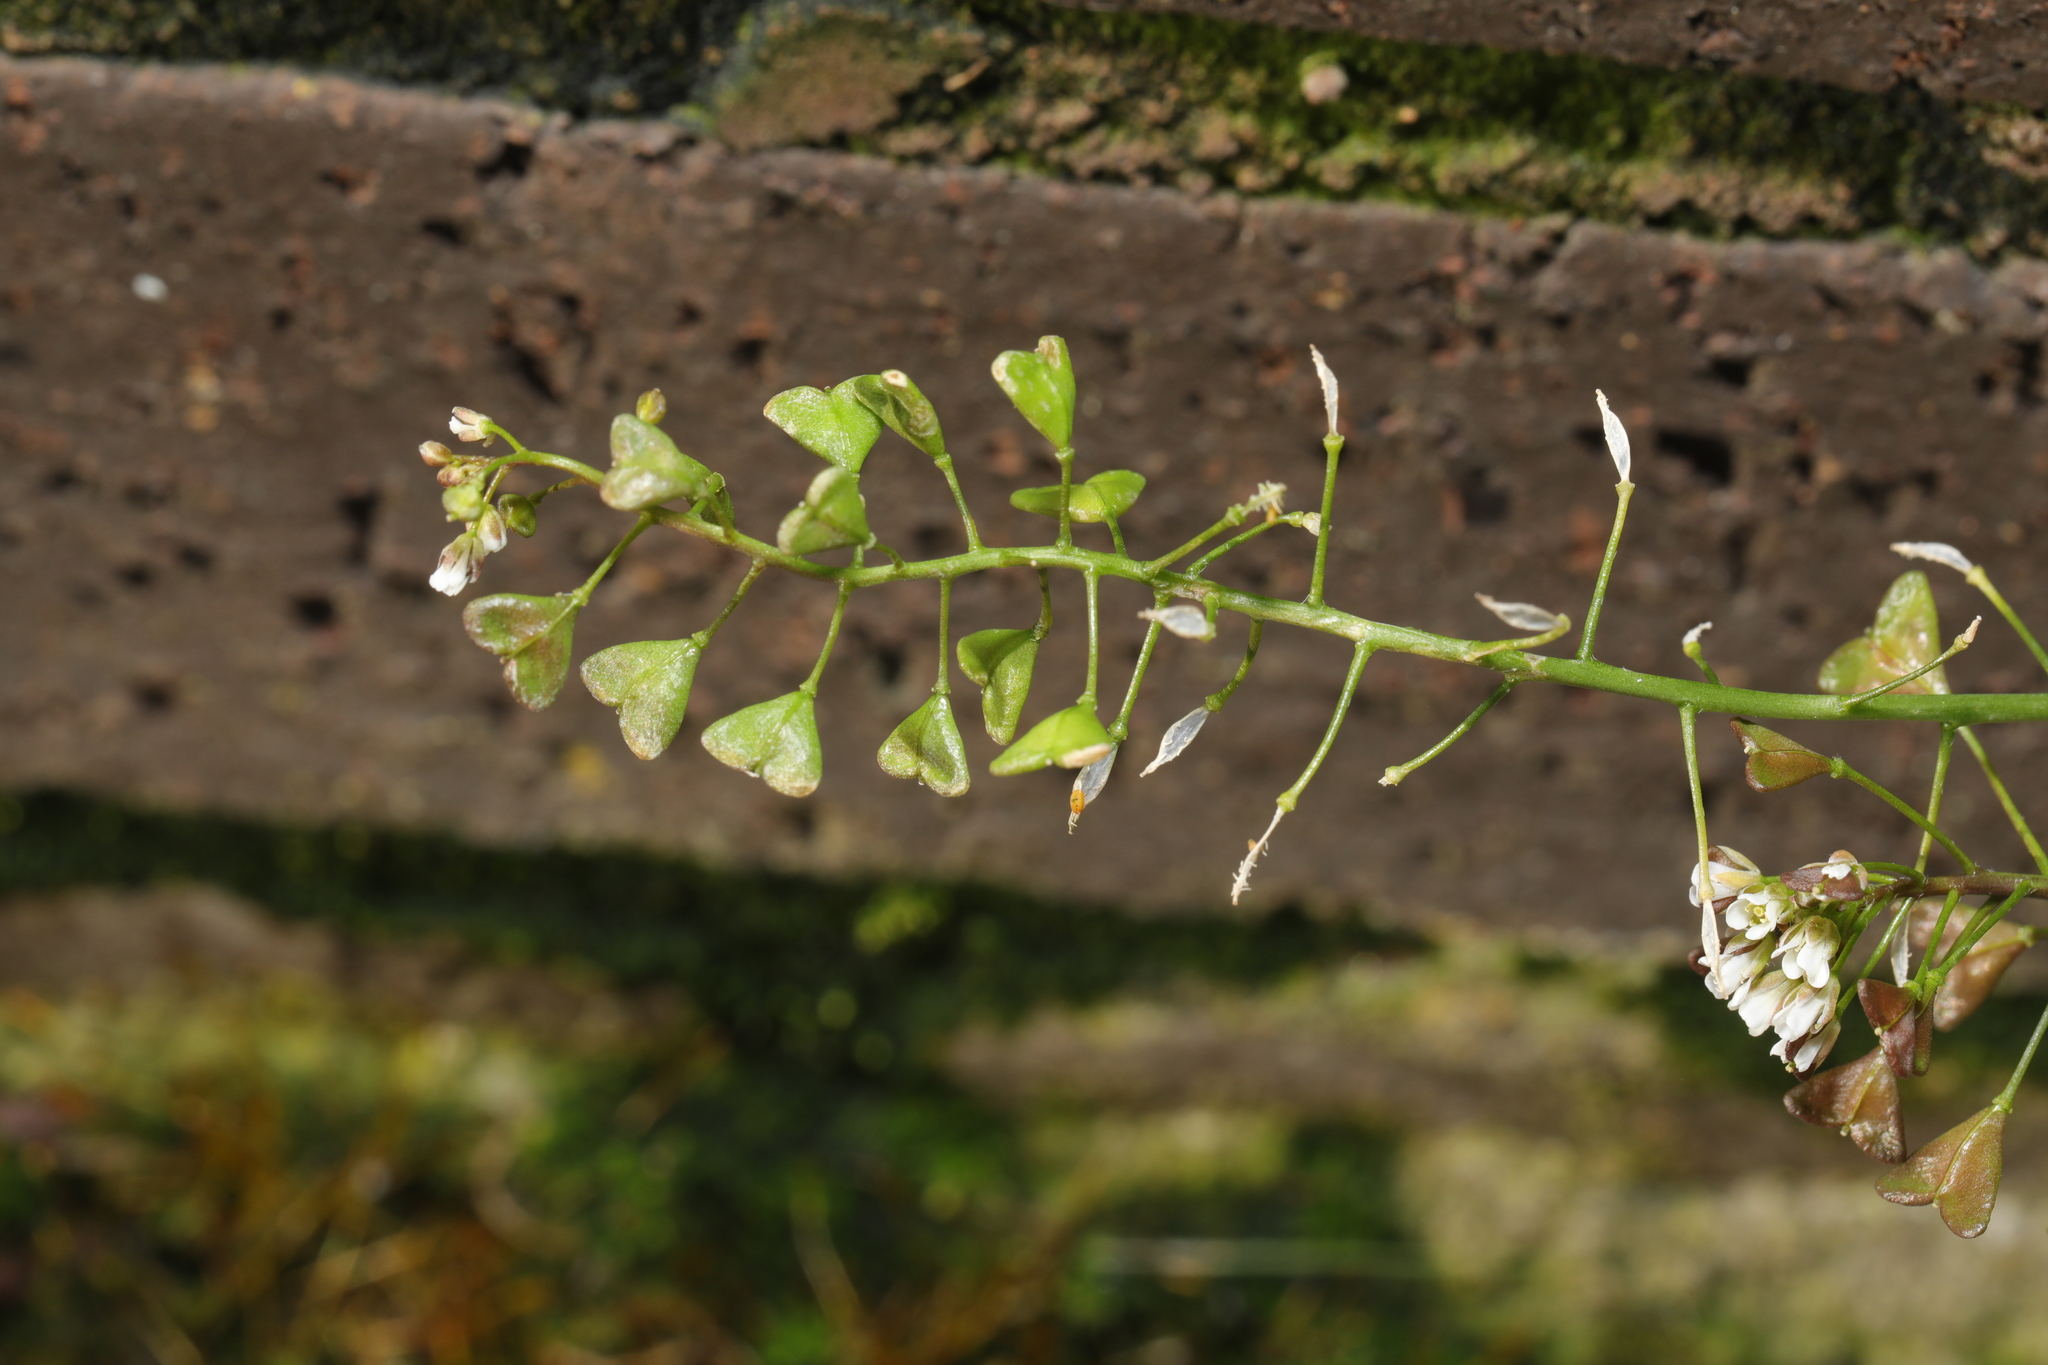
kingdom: Plantae
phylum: Tracheophyta
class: Magnoliopsida
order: Brassicales
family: Brassicaceae
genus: Capsella
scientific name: Capsella bursa-pastoris
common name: Shepherd's purse
